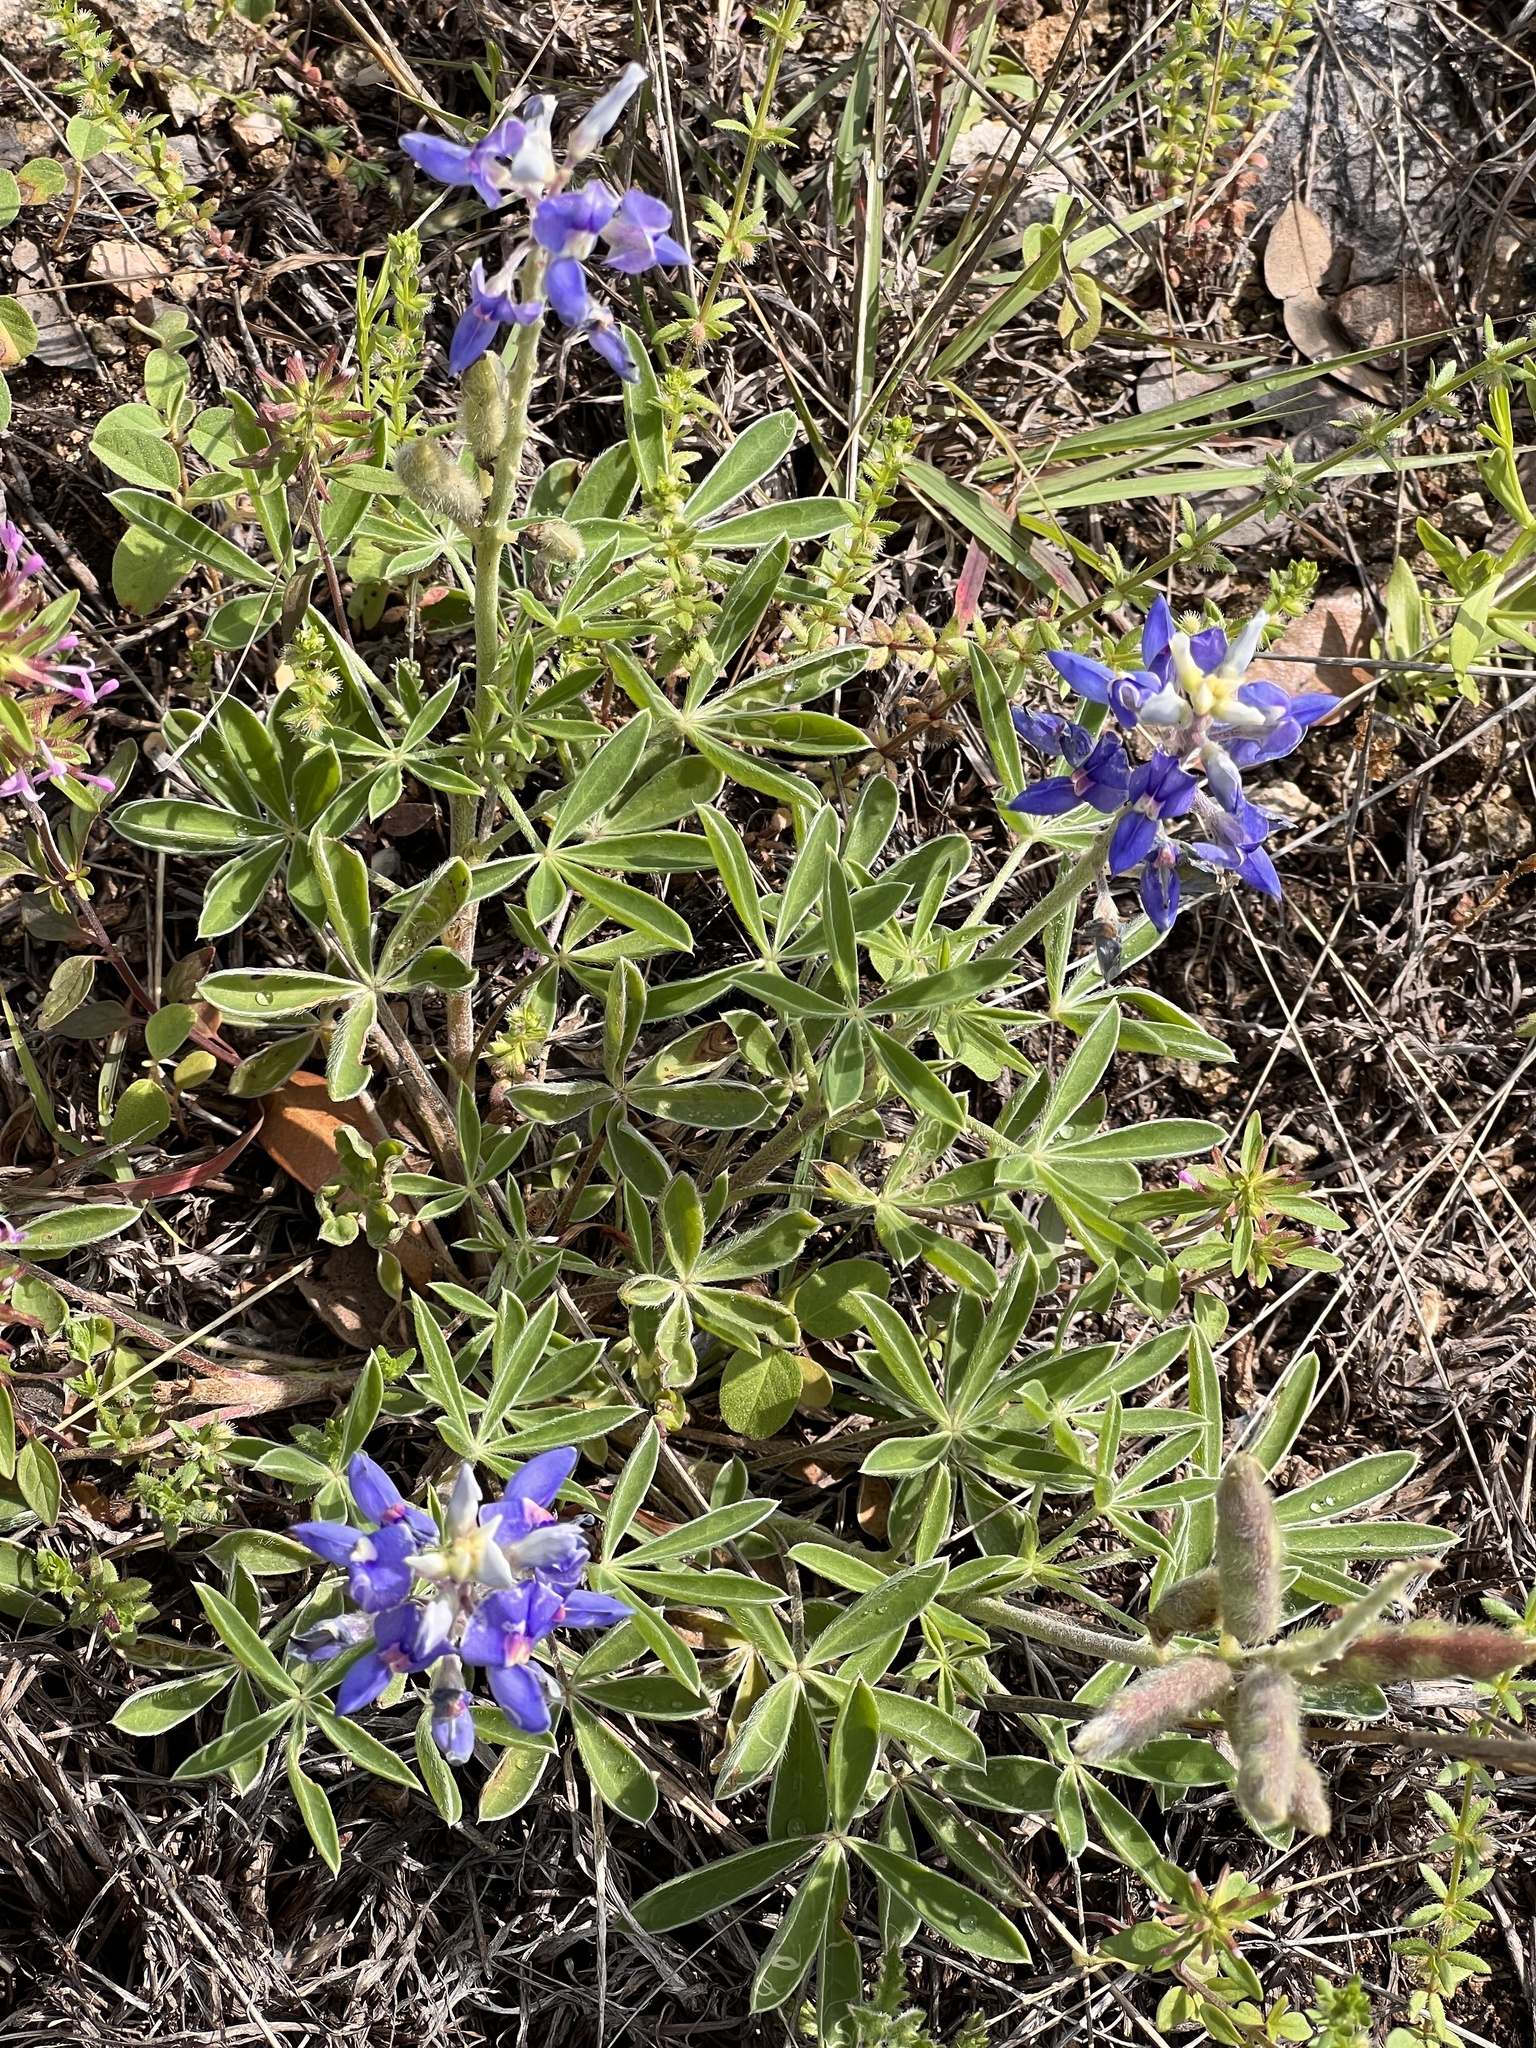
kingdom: Plantae
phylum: Tracheophyta
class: Magnoliopsida
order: Fabales
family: Fabaceae
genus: Lupinus
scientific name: Lupinus texensis
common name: Texas bluebonnet
